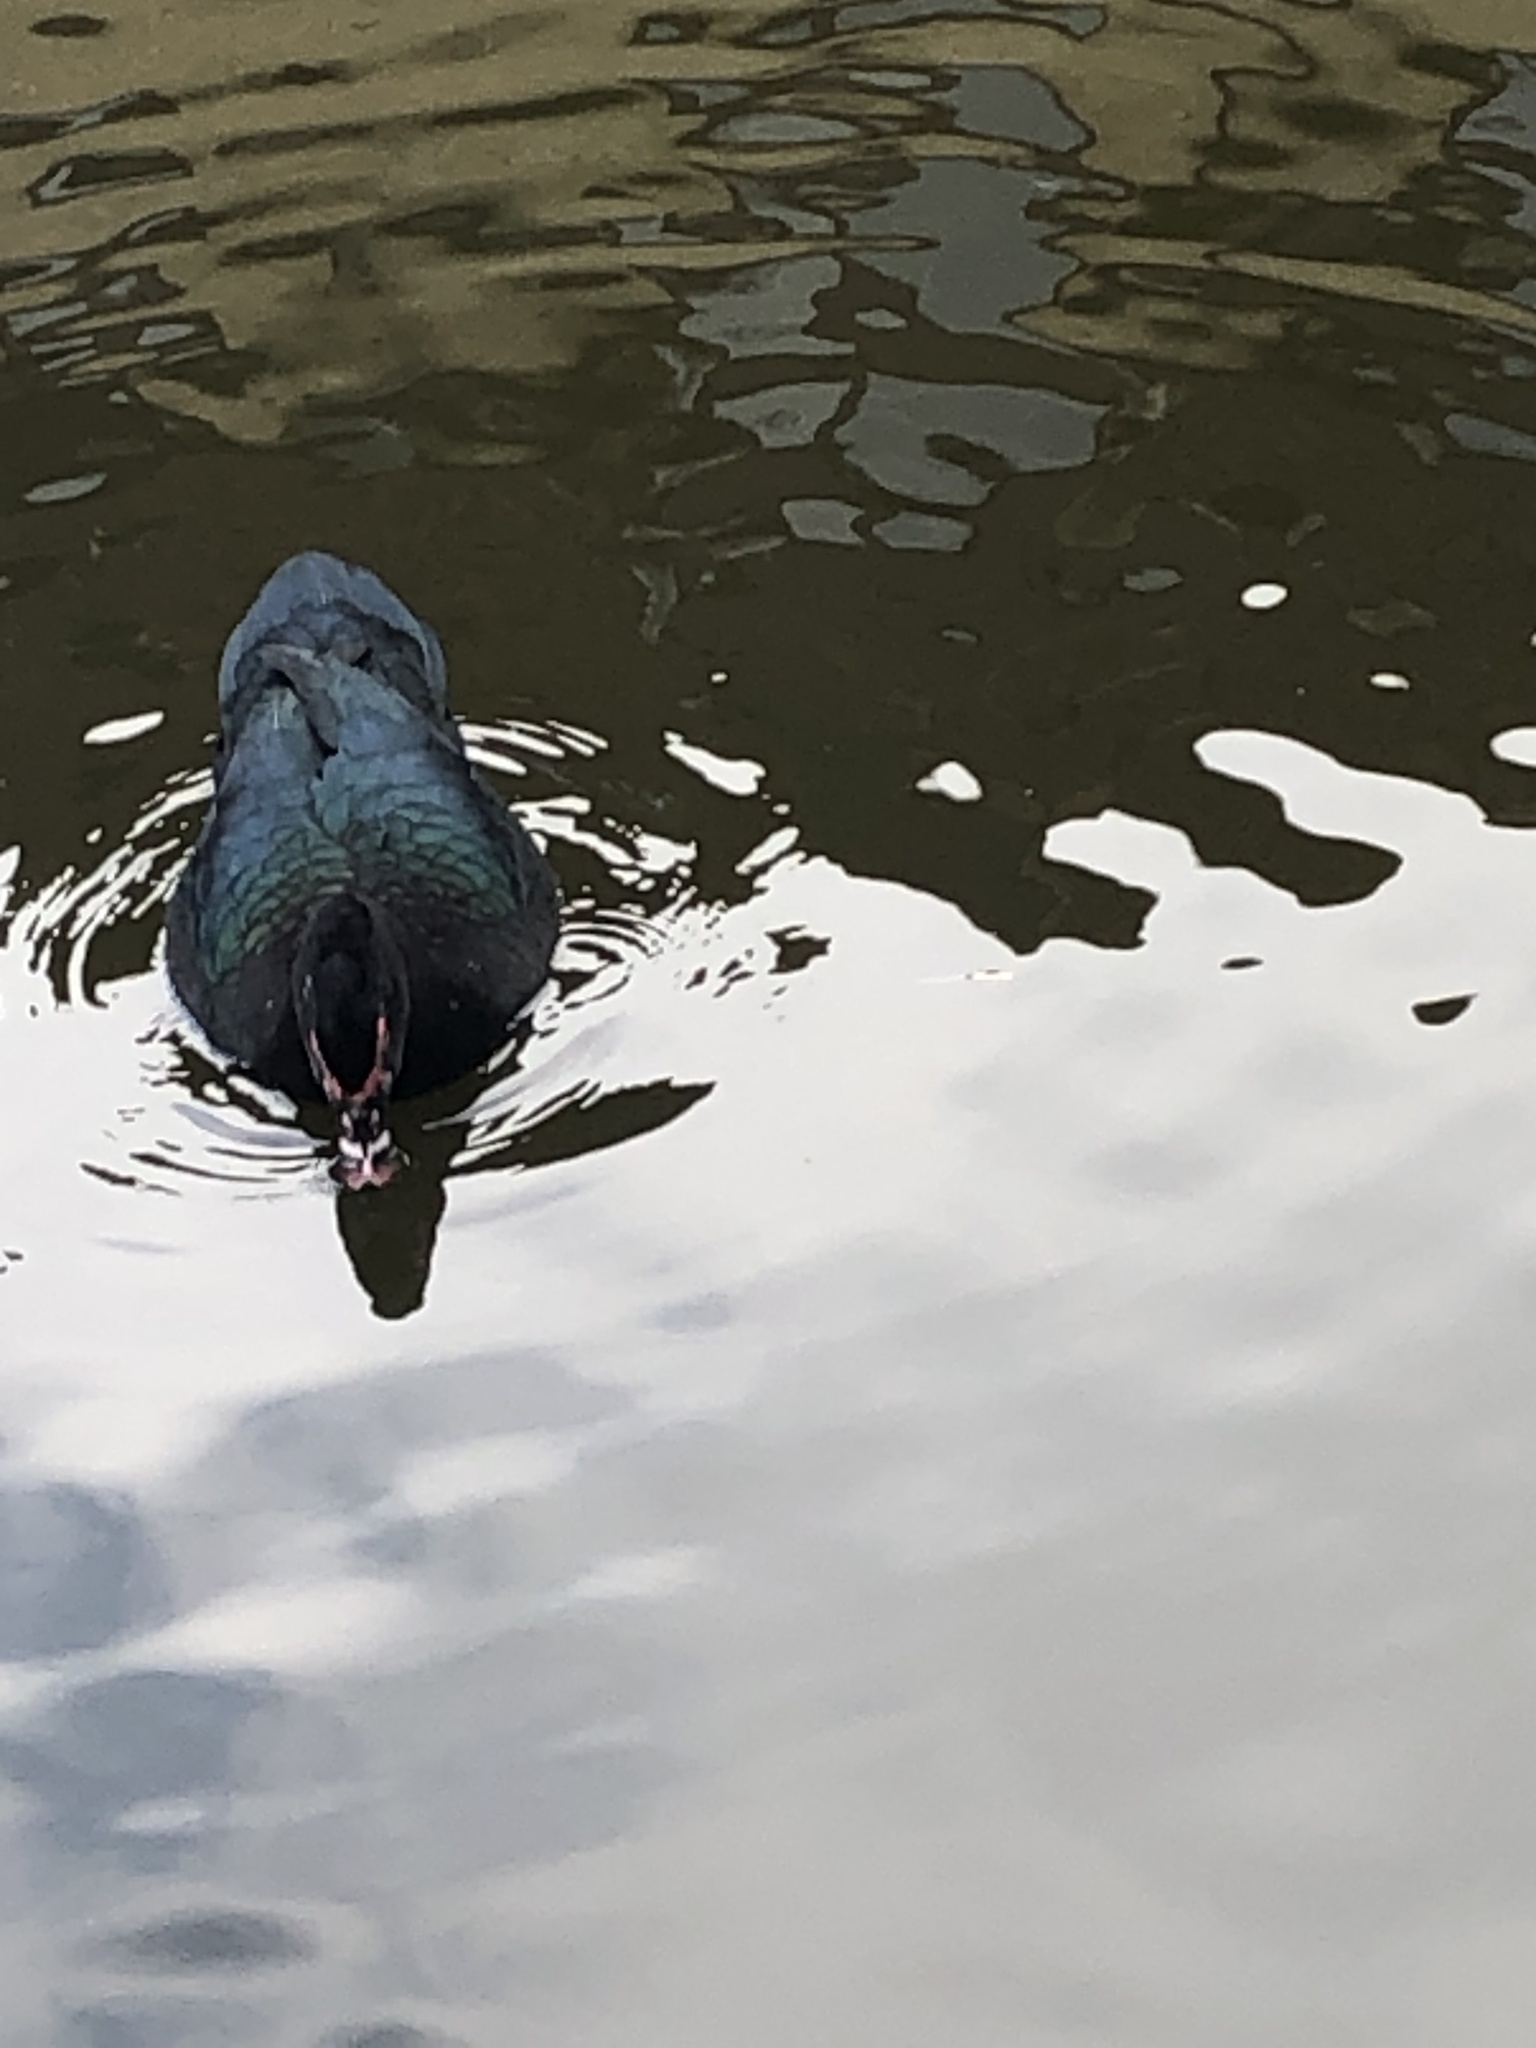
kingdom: Animalia
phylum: Chordata
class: Aves
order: Anseriformes
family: Anatidae
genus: Cairina
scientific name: Cairina moschata
